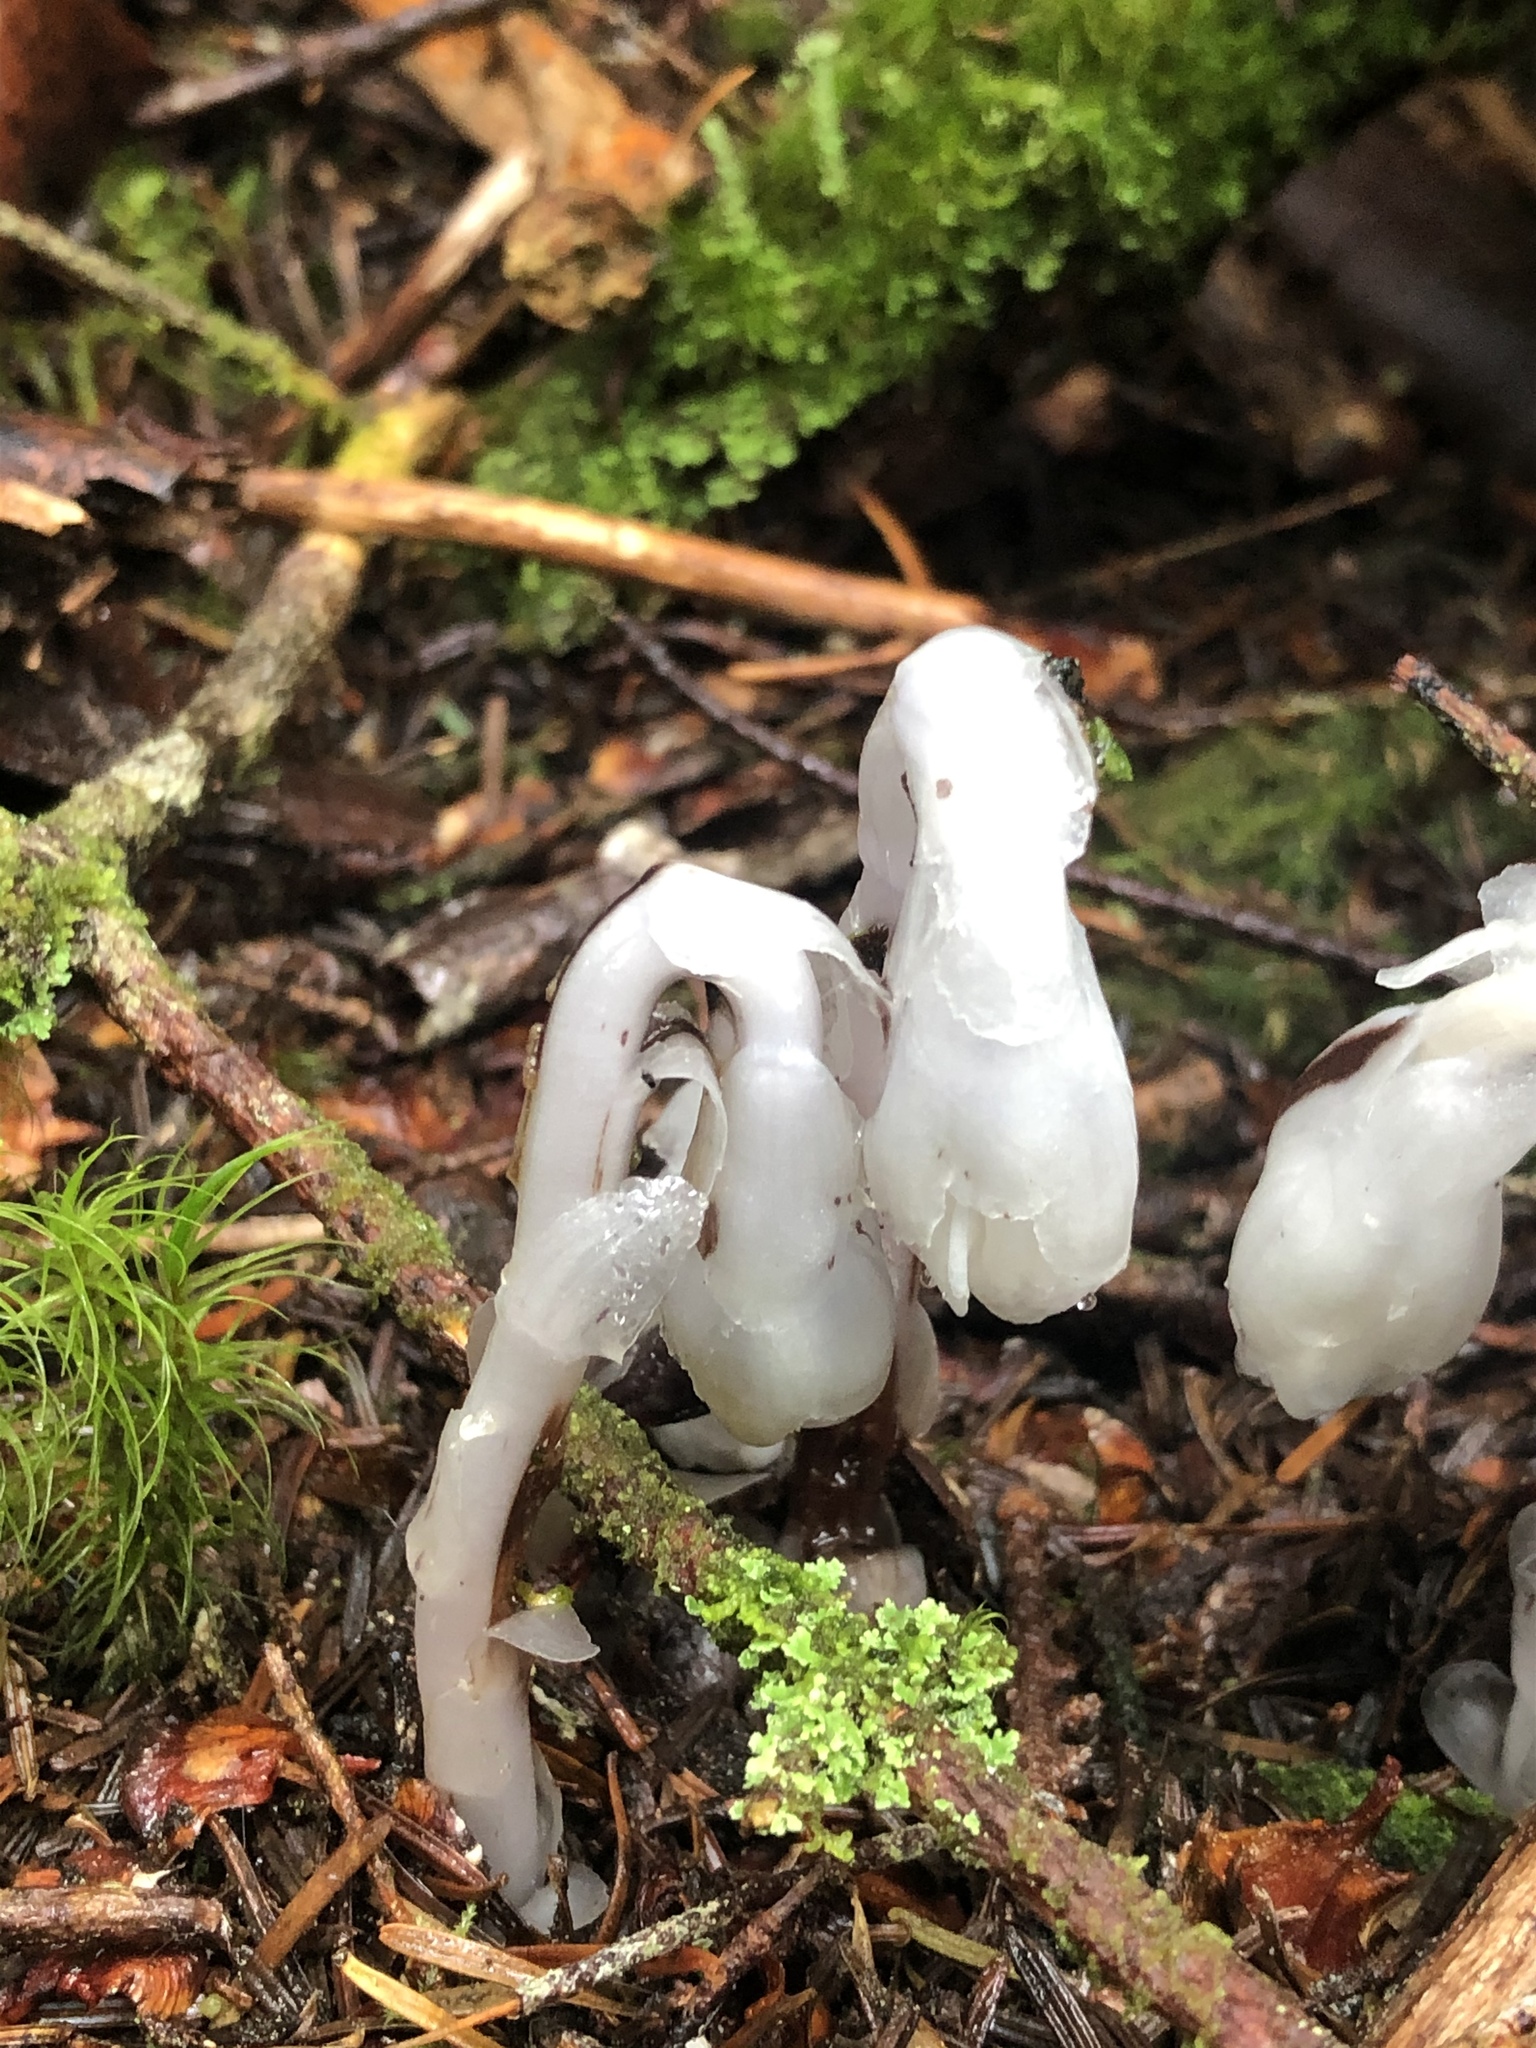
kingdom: Plantae
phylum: Tracheophyta
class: Magnoliopsida
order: Ericales
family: Ericaceae
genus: Monotropa
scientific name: Monotropa uniflora
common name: Convulsion root
